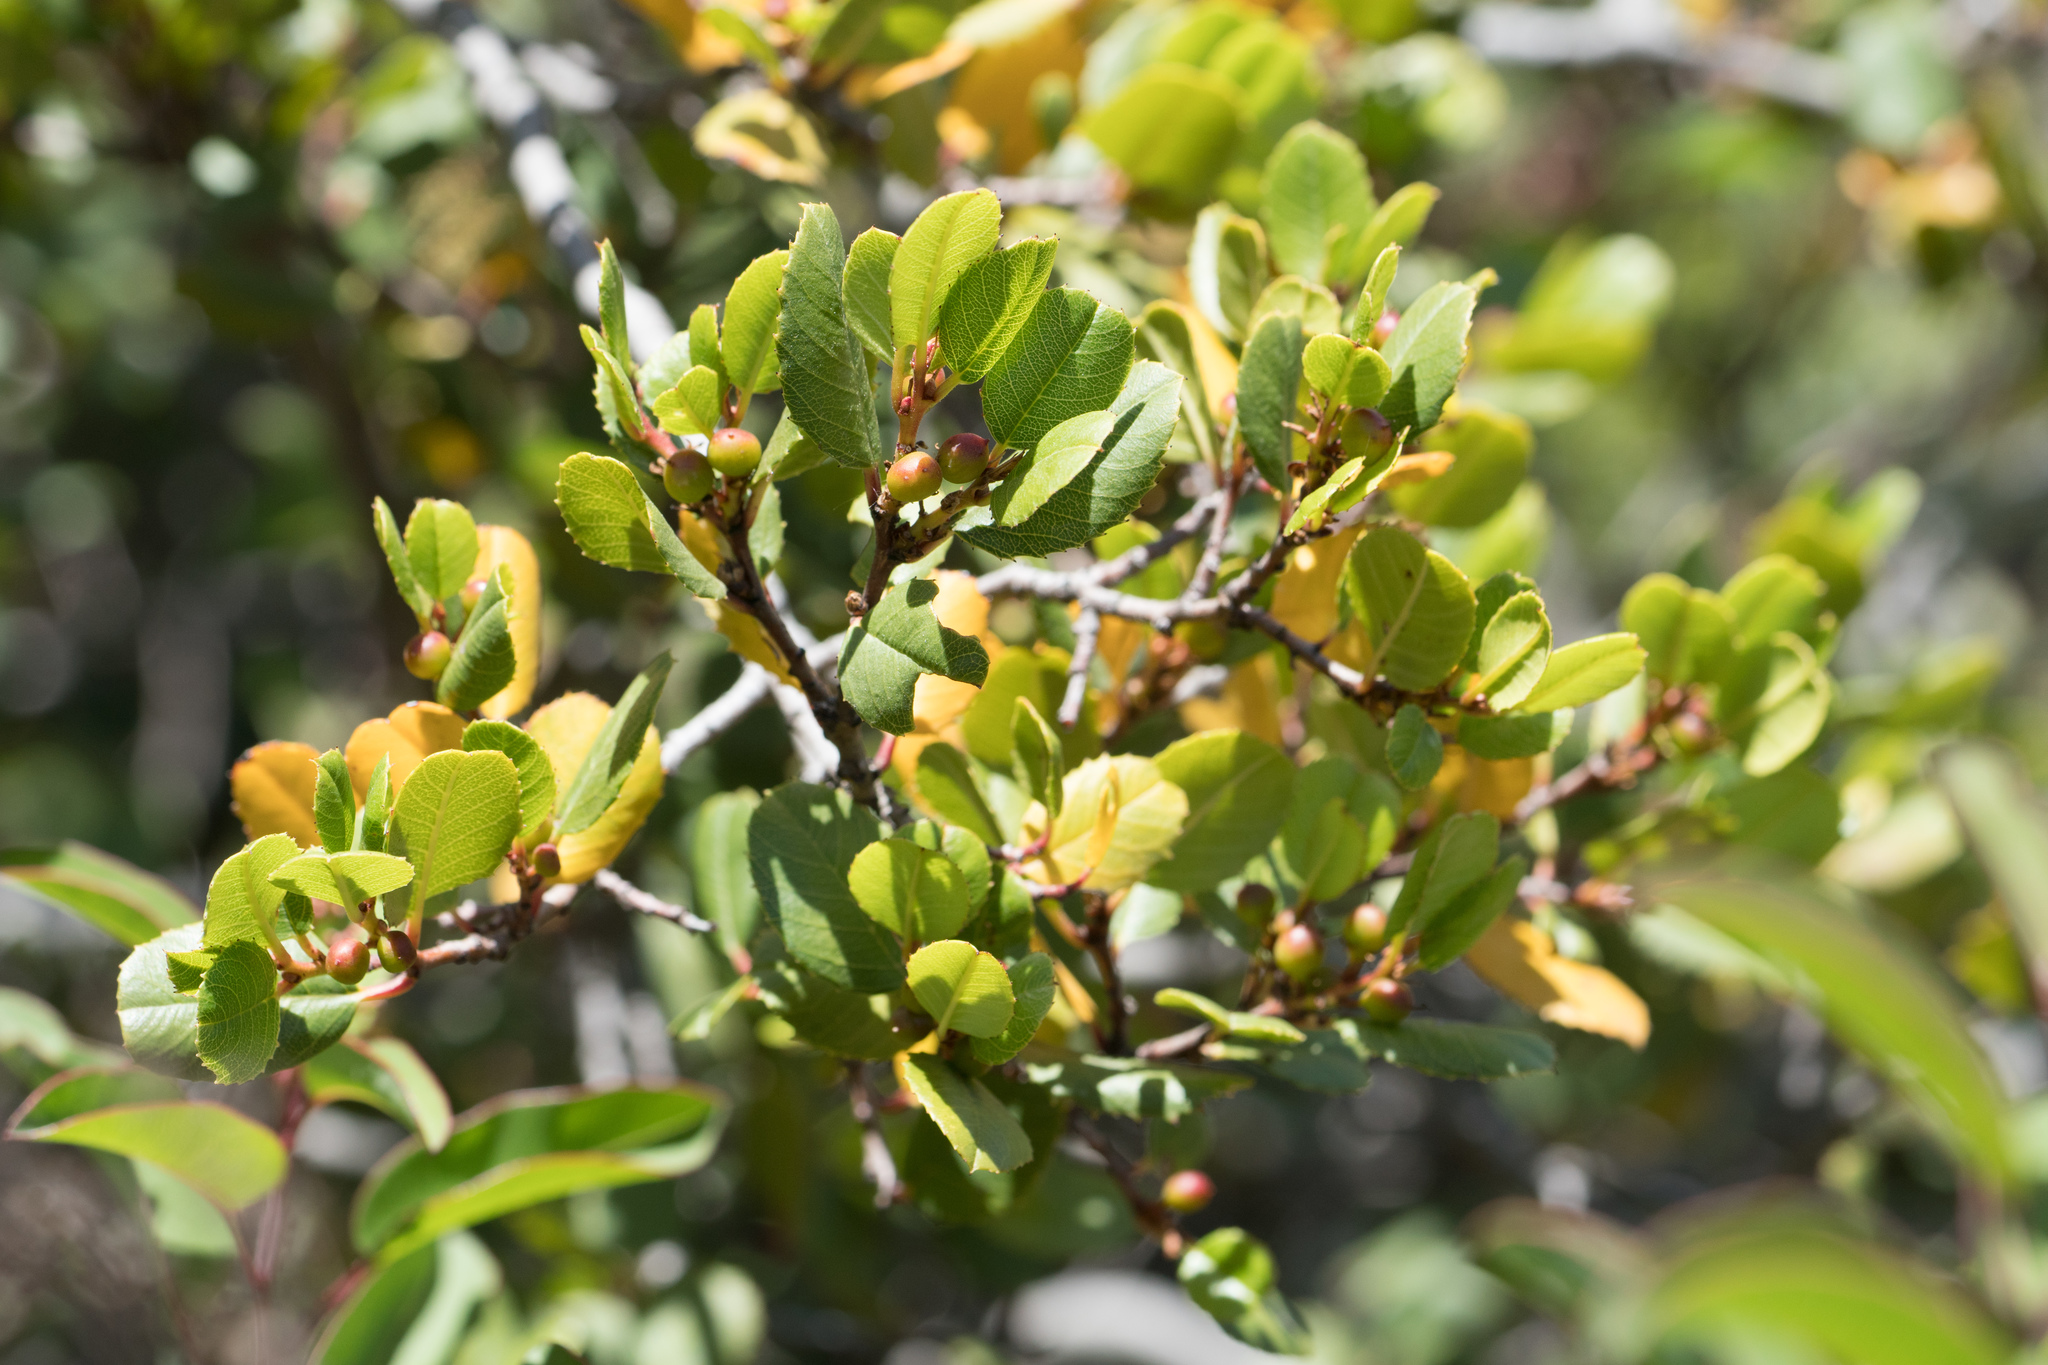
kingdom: Plantae
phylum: Tracheophyta
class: Magnoliopsida
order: Rosales
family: Rhamnaceae
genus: Endotropis
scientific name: Endotropis crocea
